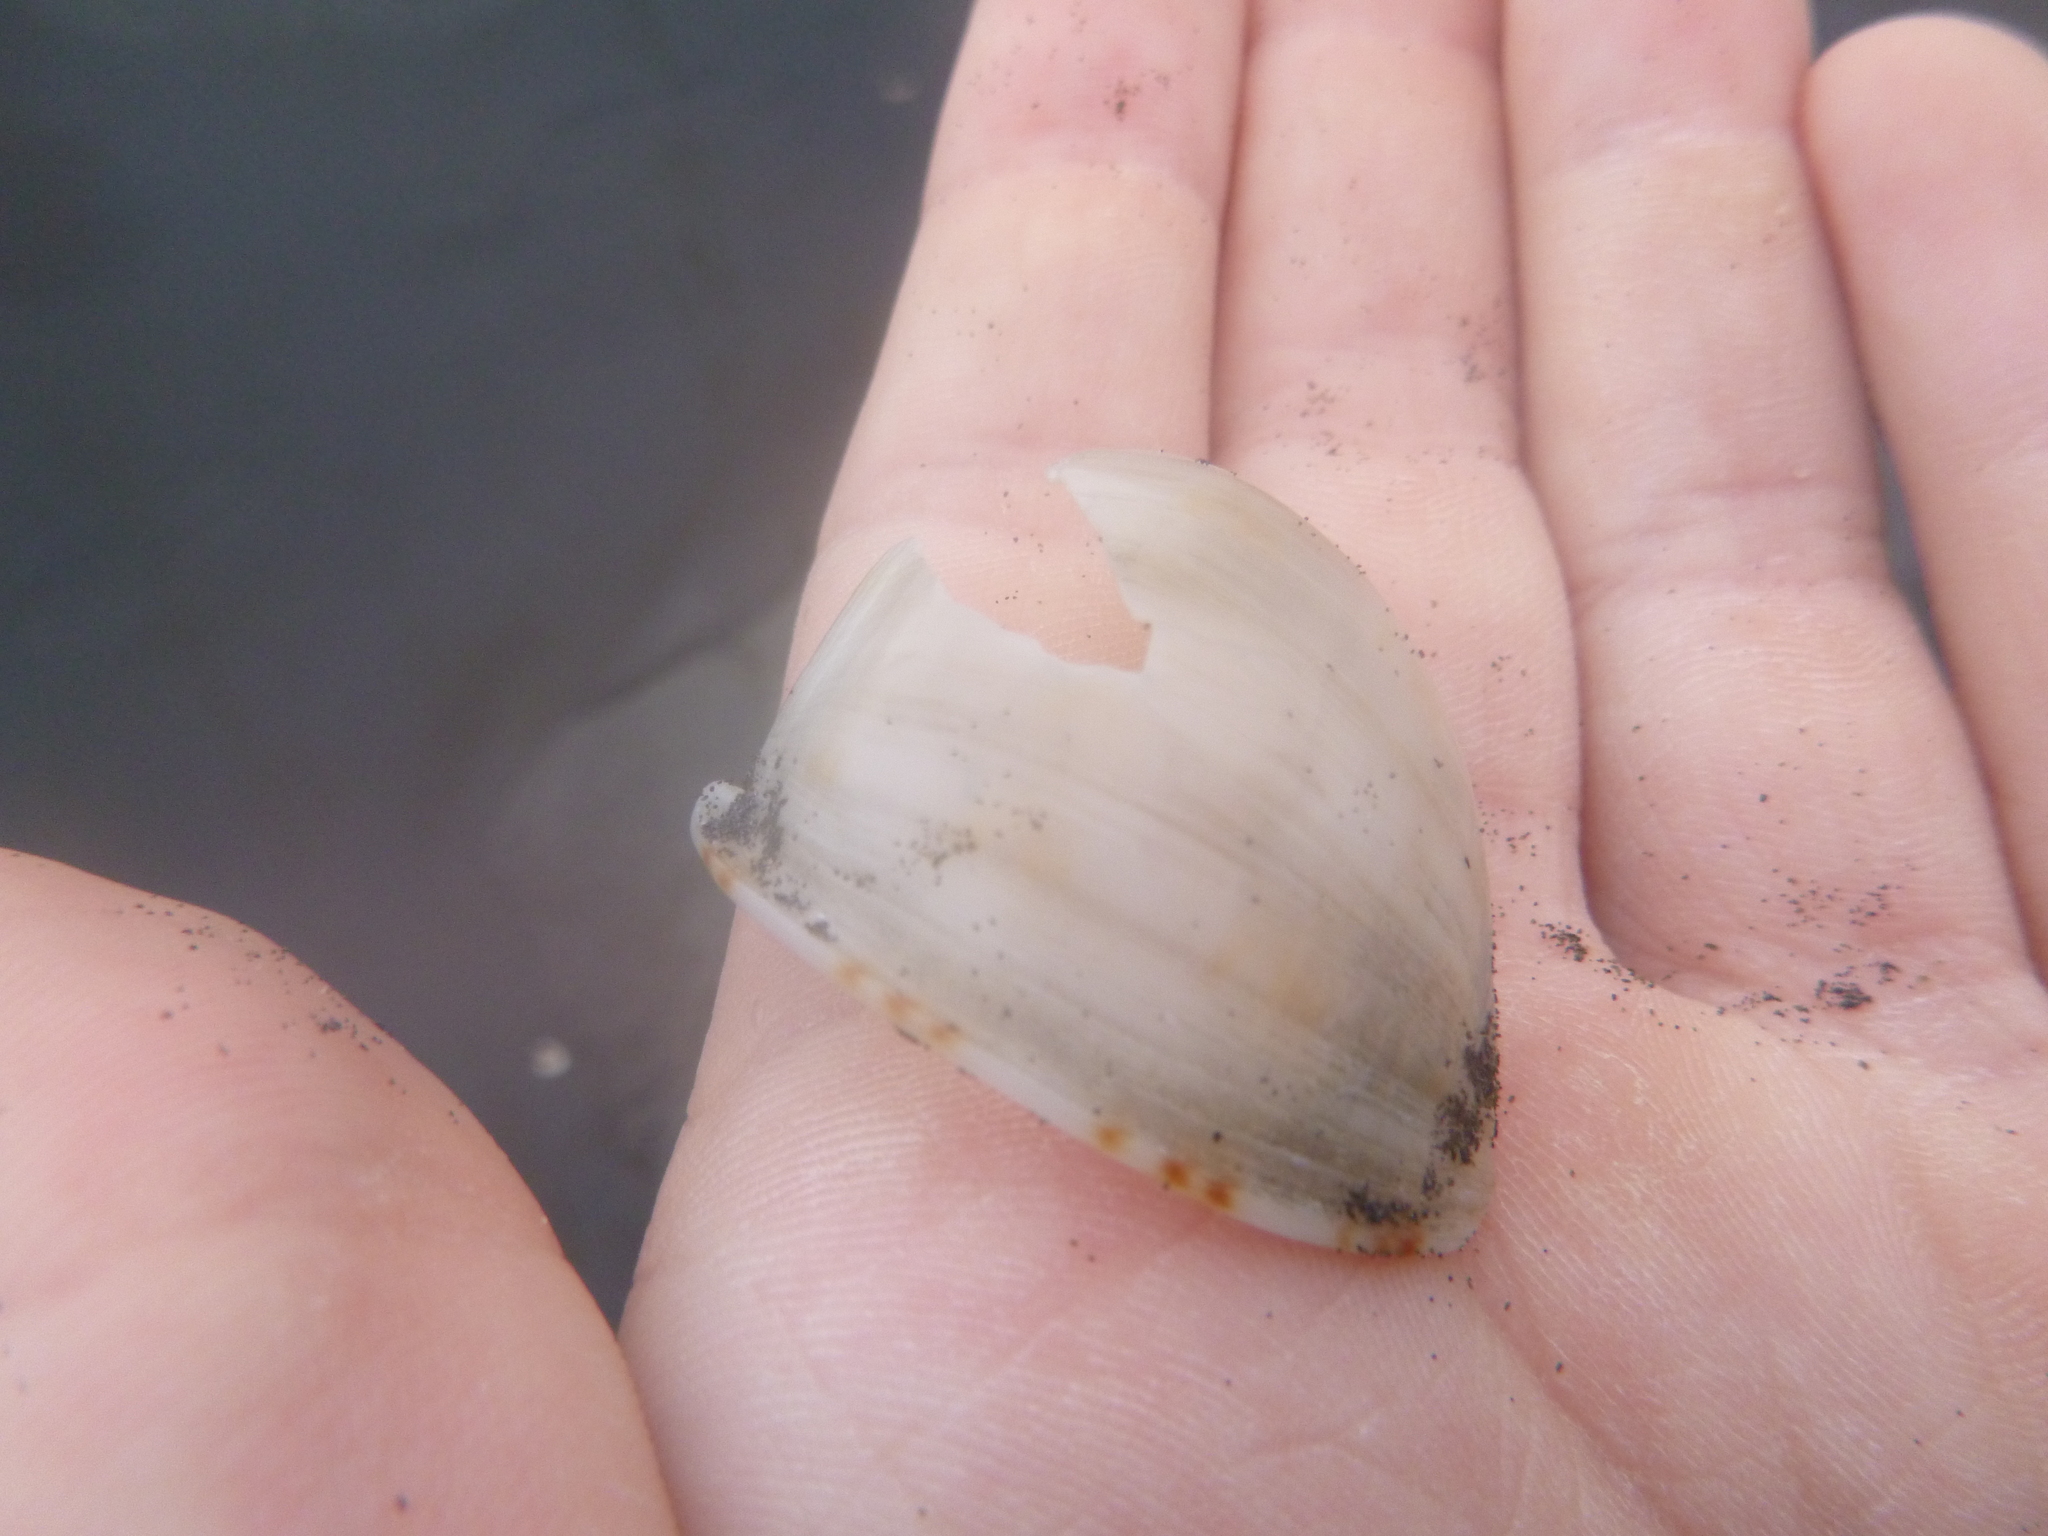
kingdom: Animalia
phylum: Mollusca
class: Gastropoda
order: Littorinimorpha
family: Cassidae
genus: Semicassis
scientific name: Semicassis pyrum
